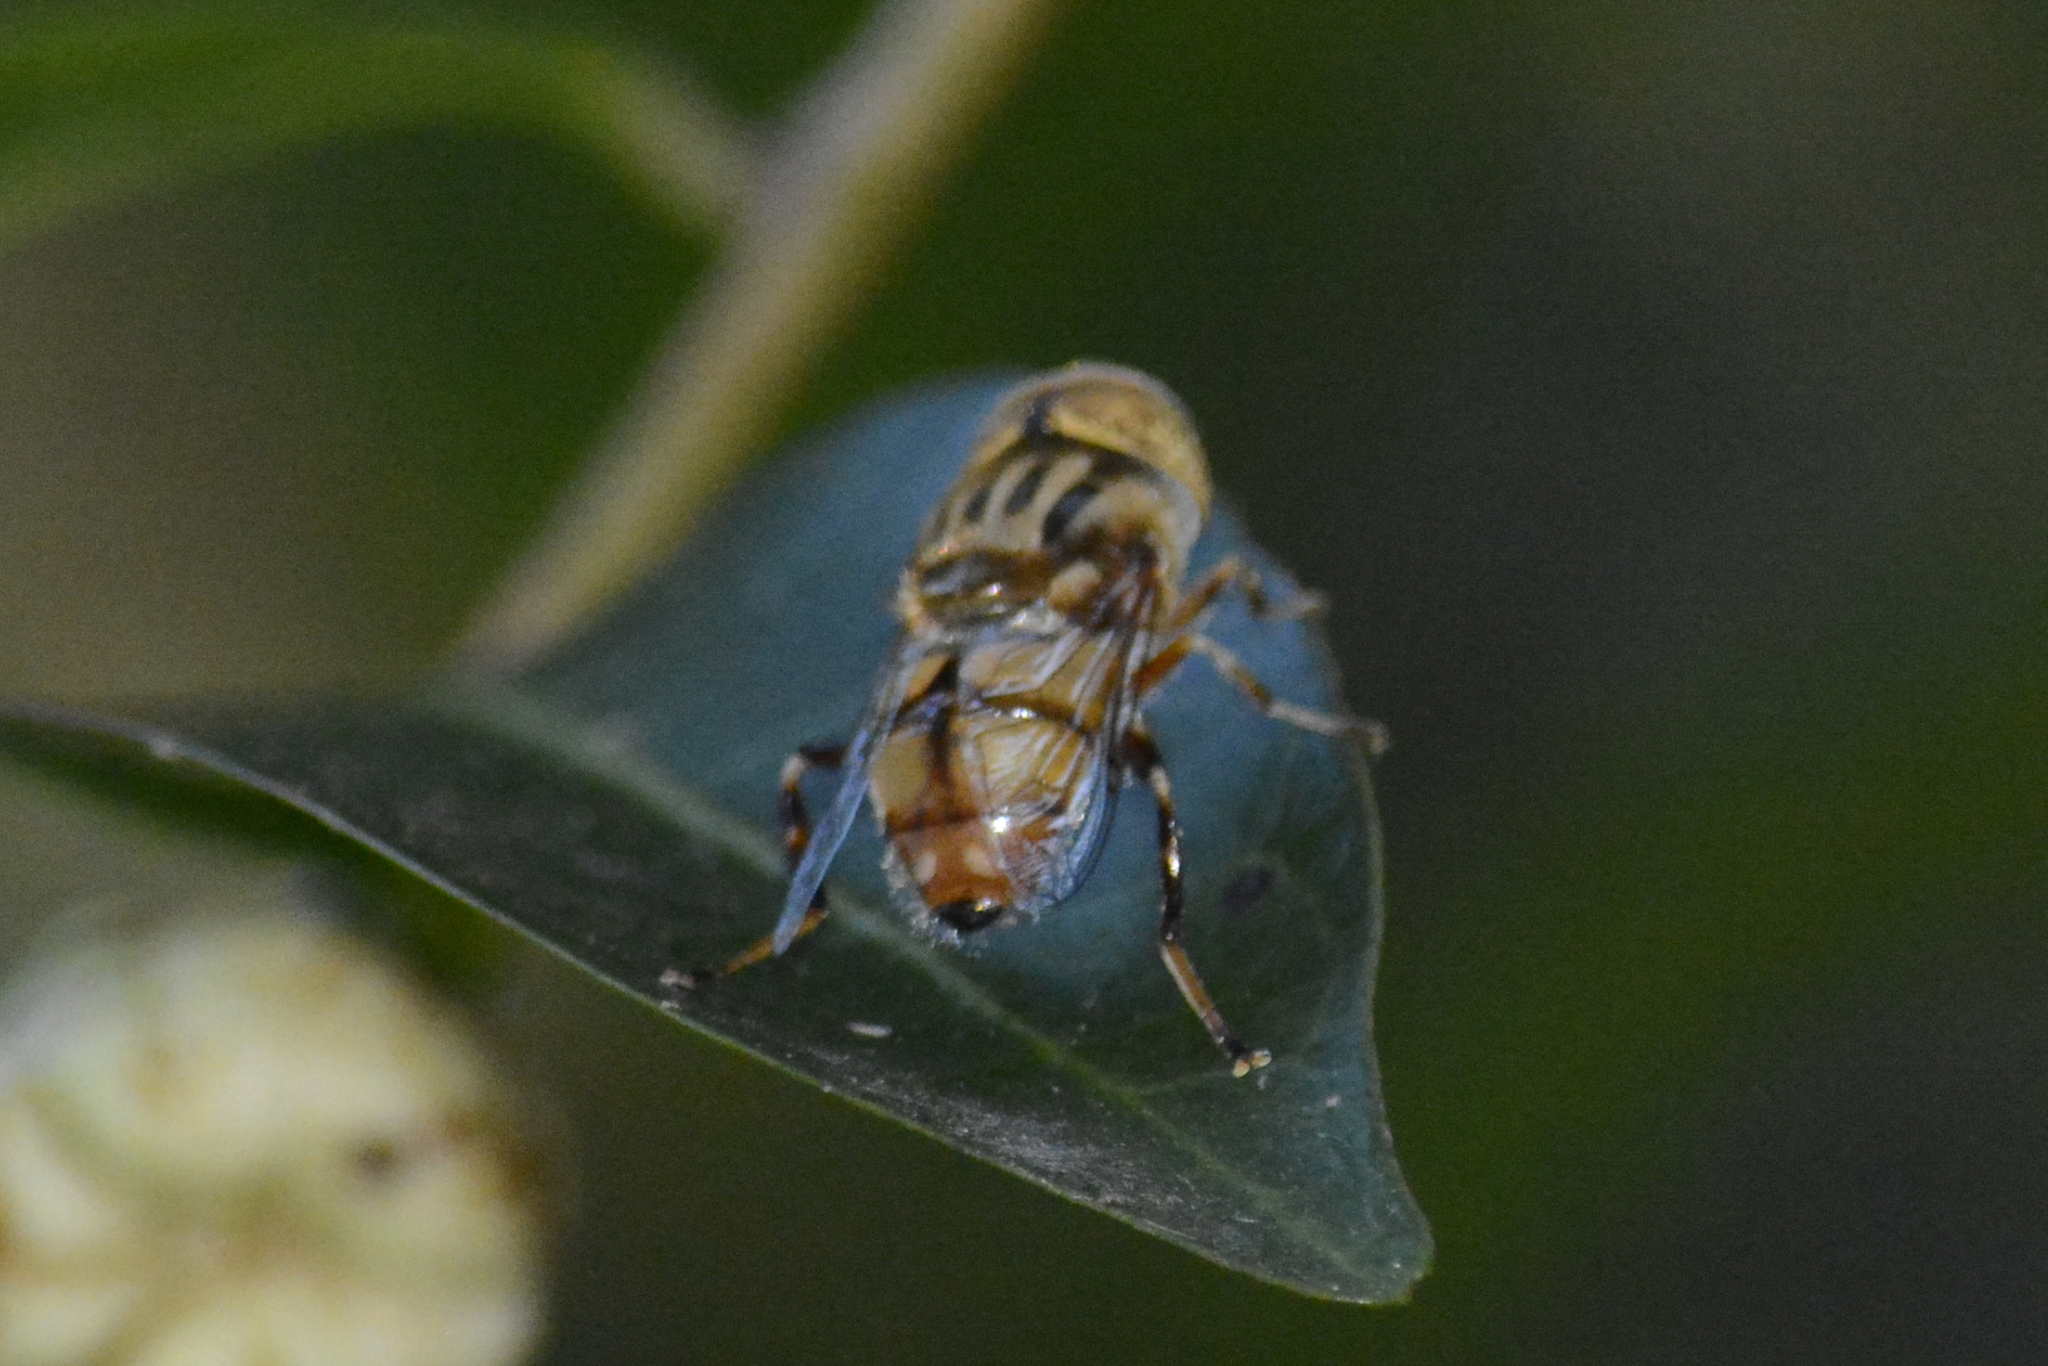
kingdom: Animalia
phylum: Arthropoda
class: Insecta
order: Diptera
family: Syrphidae
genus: Eristalinus
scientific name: Eristalinus punctulatus
